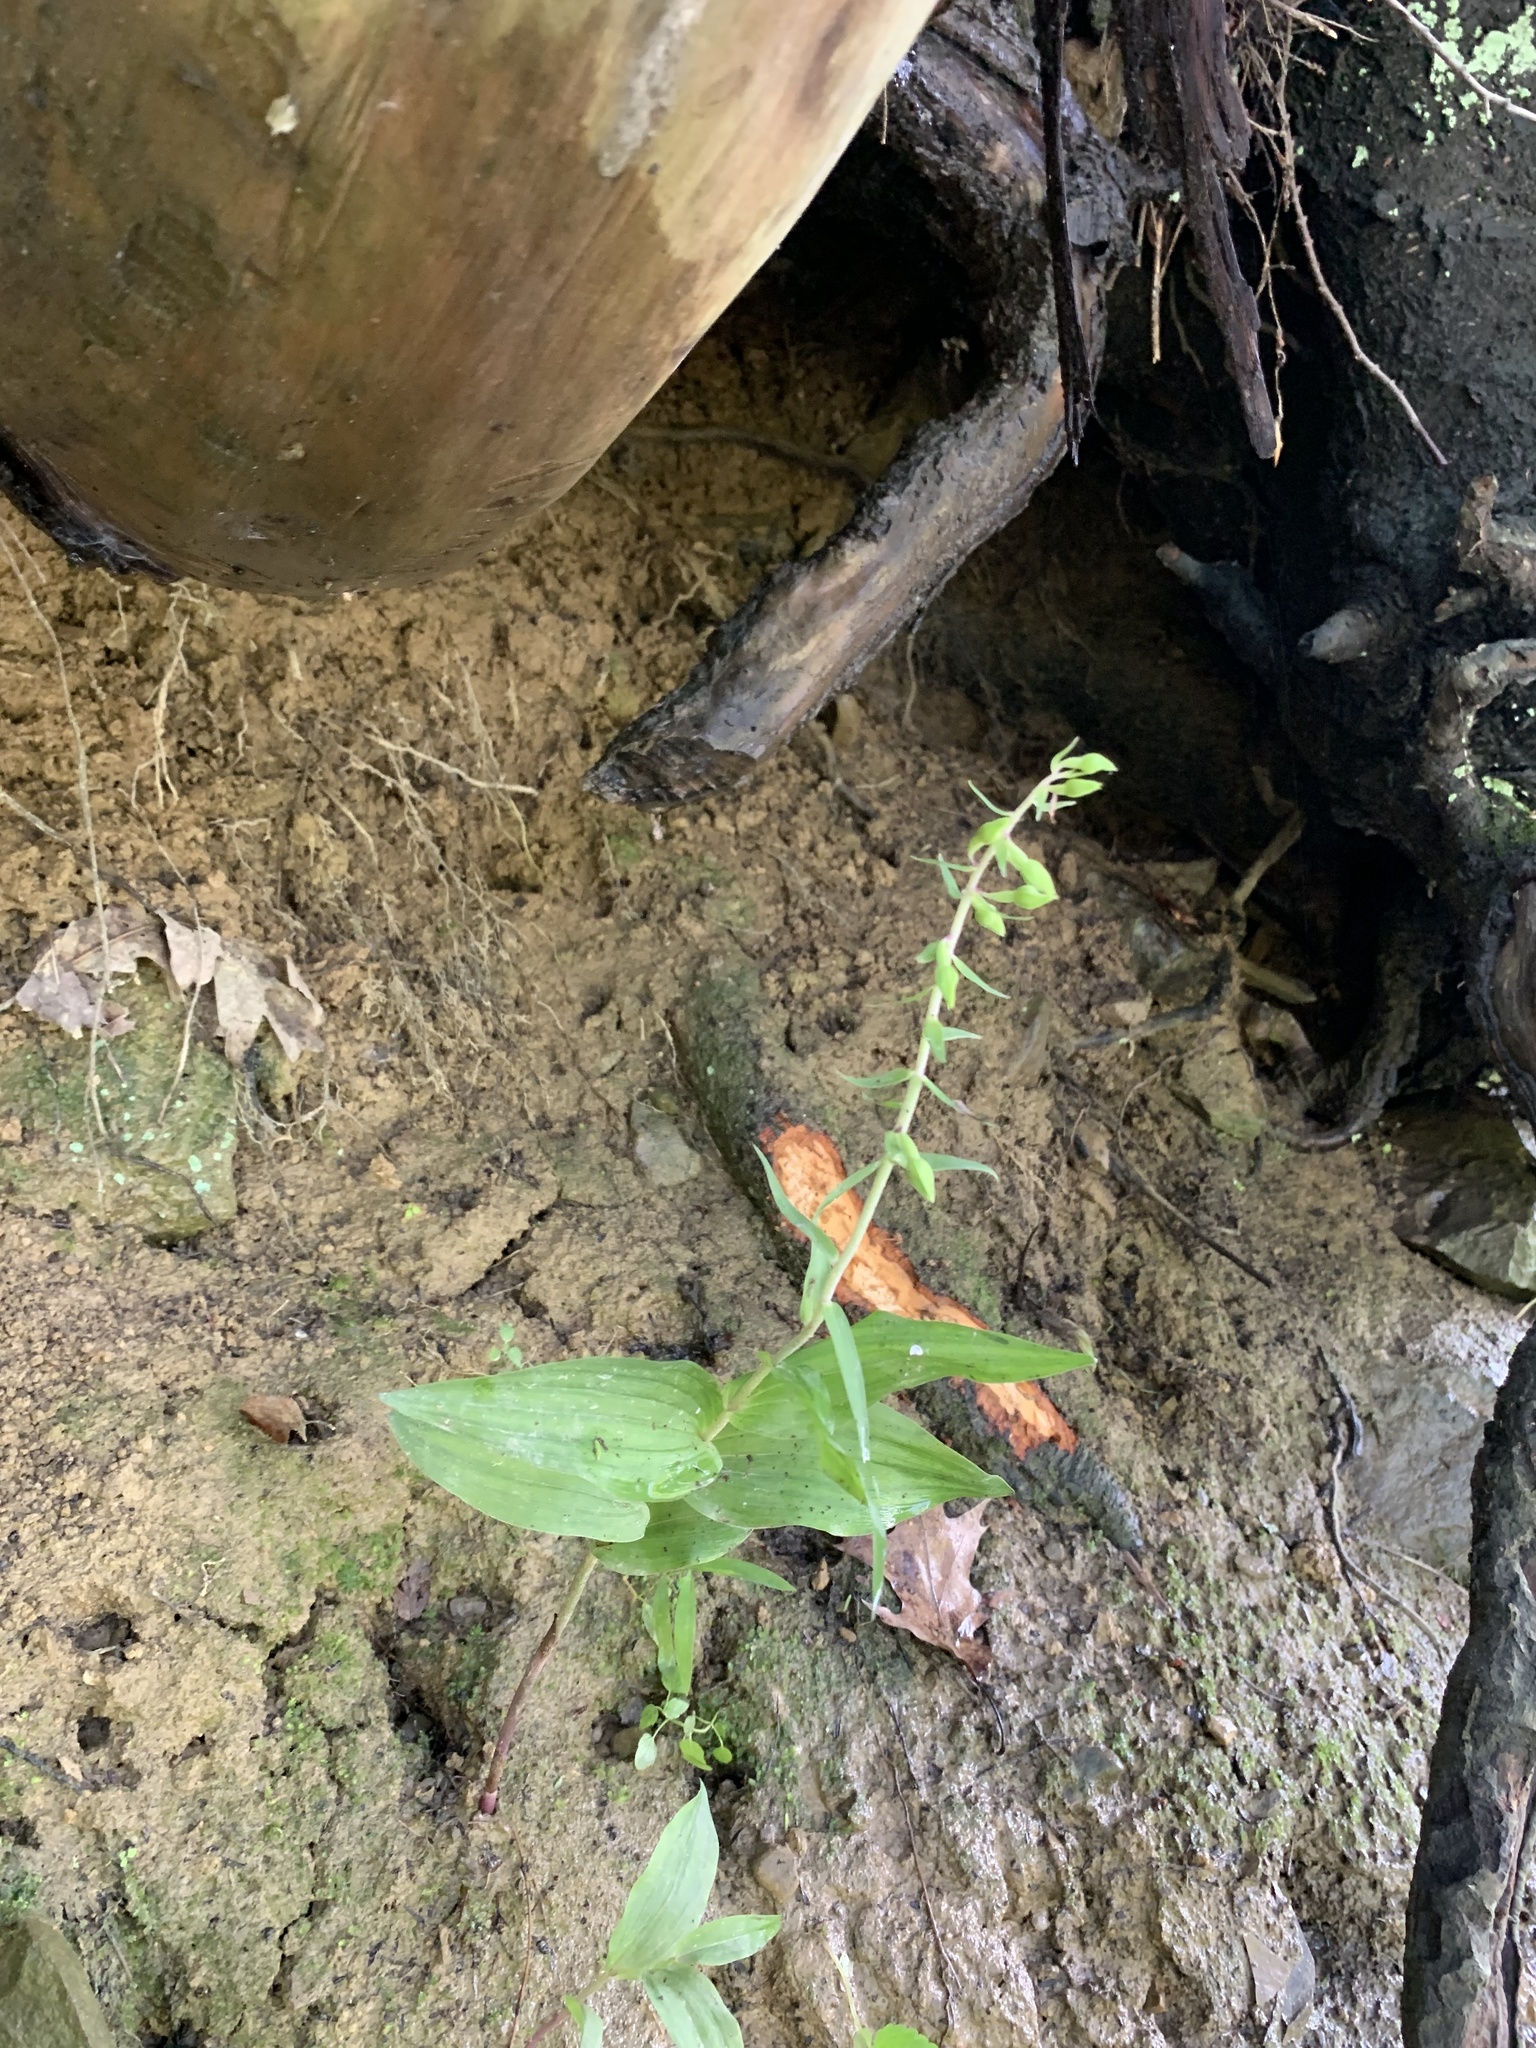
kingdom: Plantae
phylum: Tracheophyta
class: Liliopsida
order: Asparagales
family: Orchidaceae
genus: Epipactis
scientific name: Epipactis helleborine
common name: Broad-leaved helleborine
